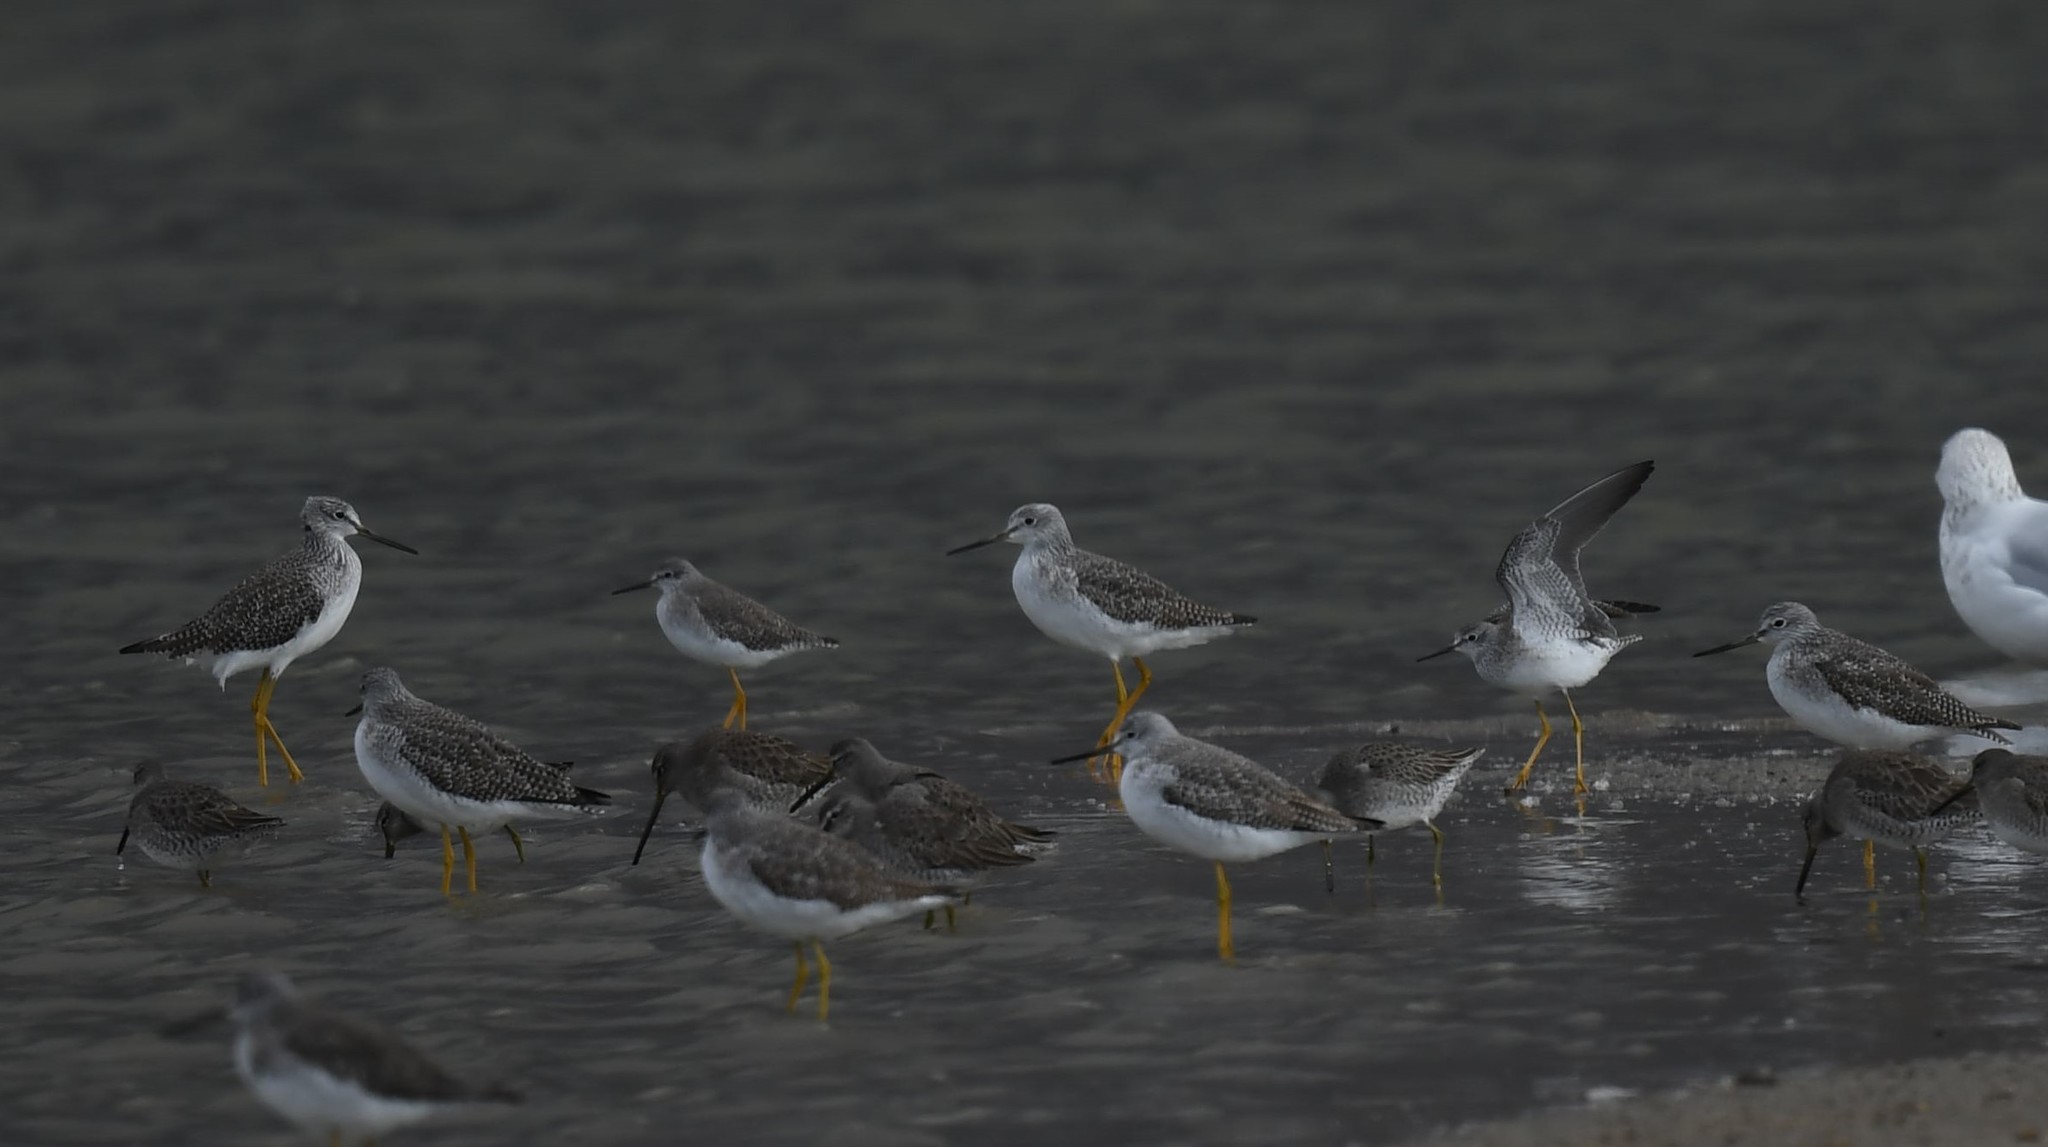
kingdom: Animalia
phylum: Chordata
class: Aves
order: Charadriiformes
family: Scolopacidae
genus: Tringa
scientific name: Tringa flavipes
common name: Lesser yellowlegs
